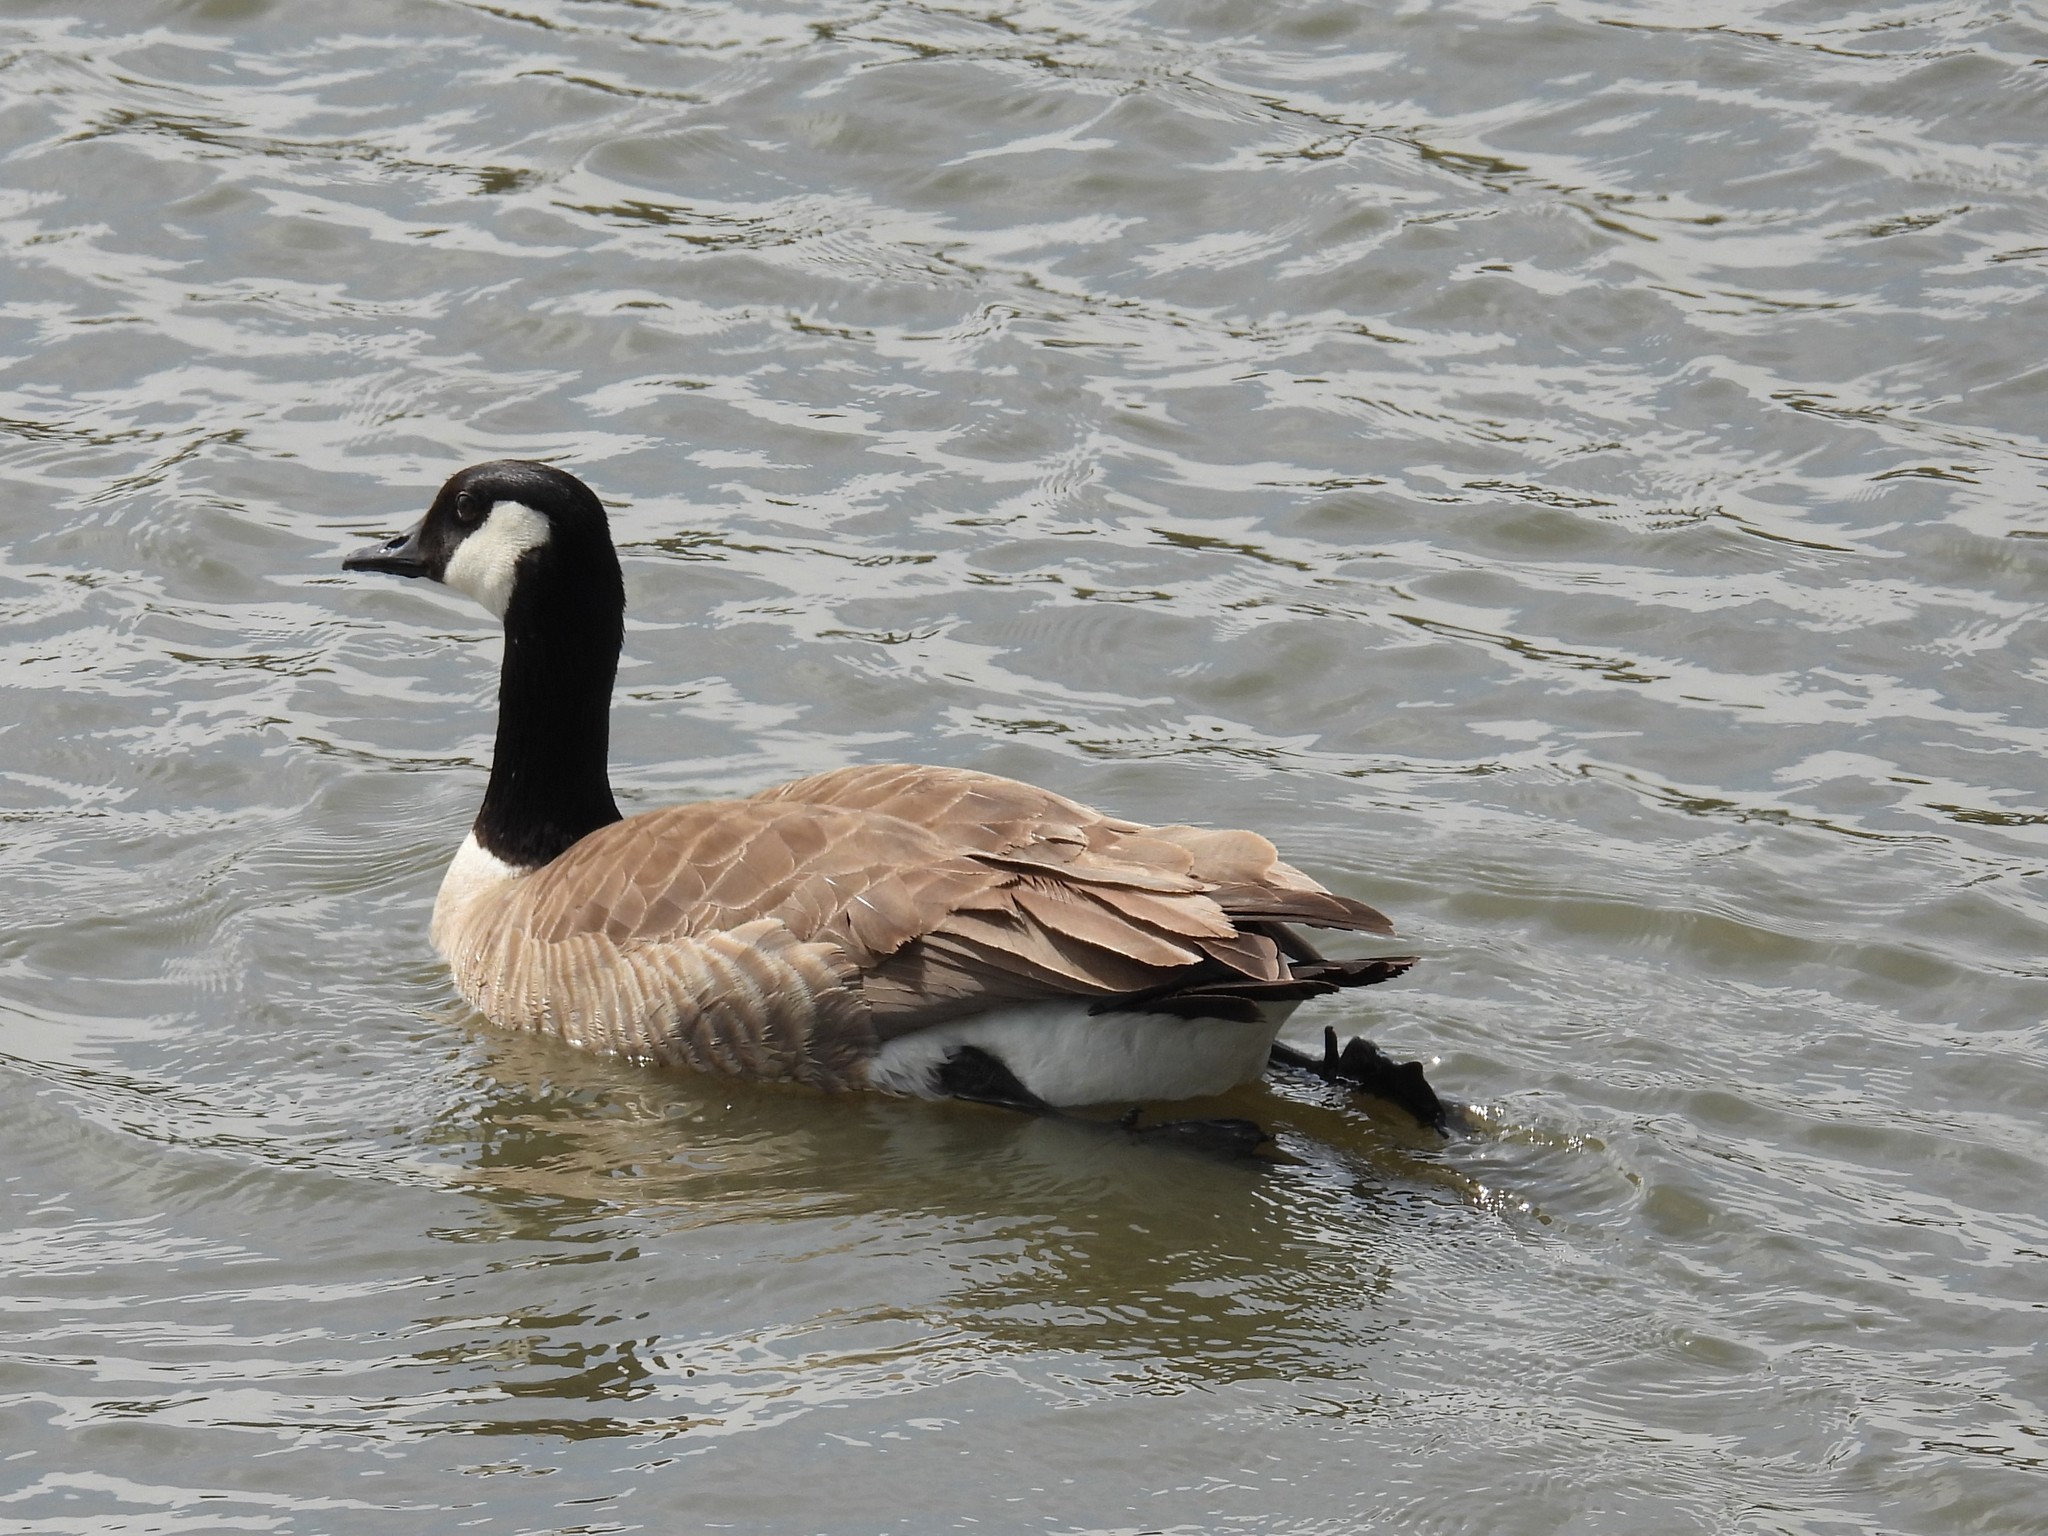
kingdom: Animalia
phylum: Chordata
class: Aves
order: Anseriformes
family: Anatidae
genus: Branta
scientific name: Branta canadensis
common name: Canada goose
